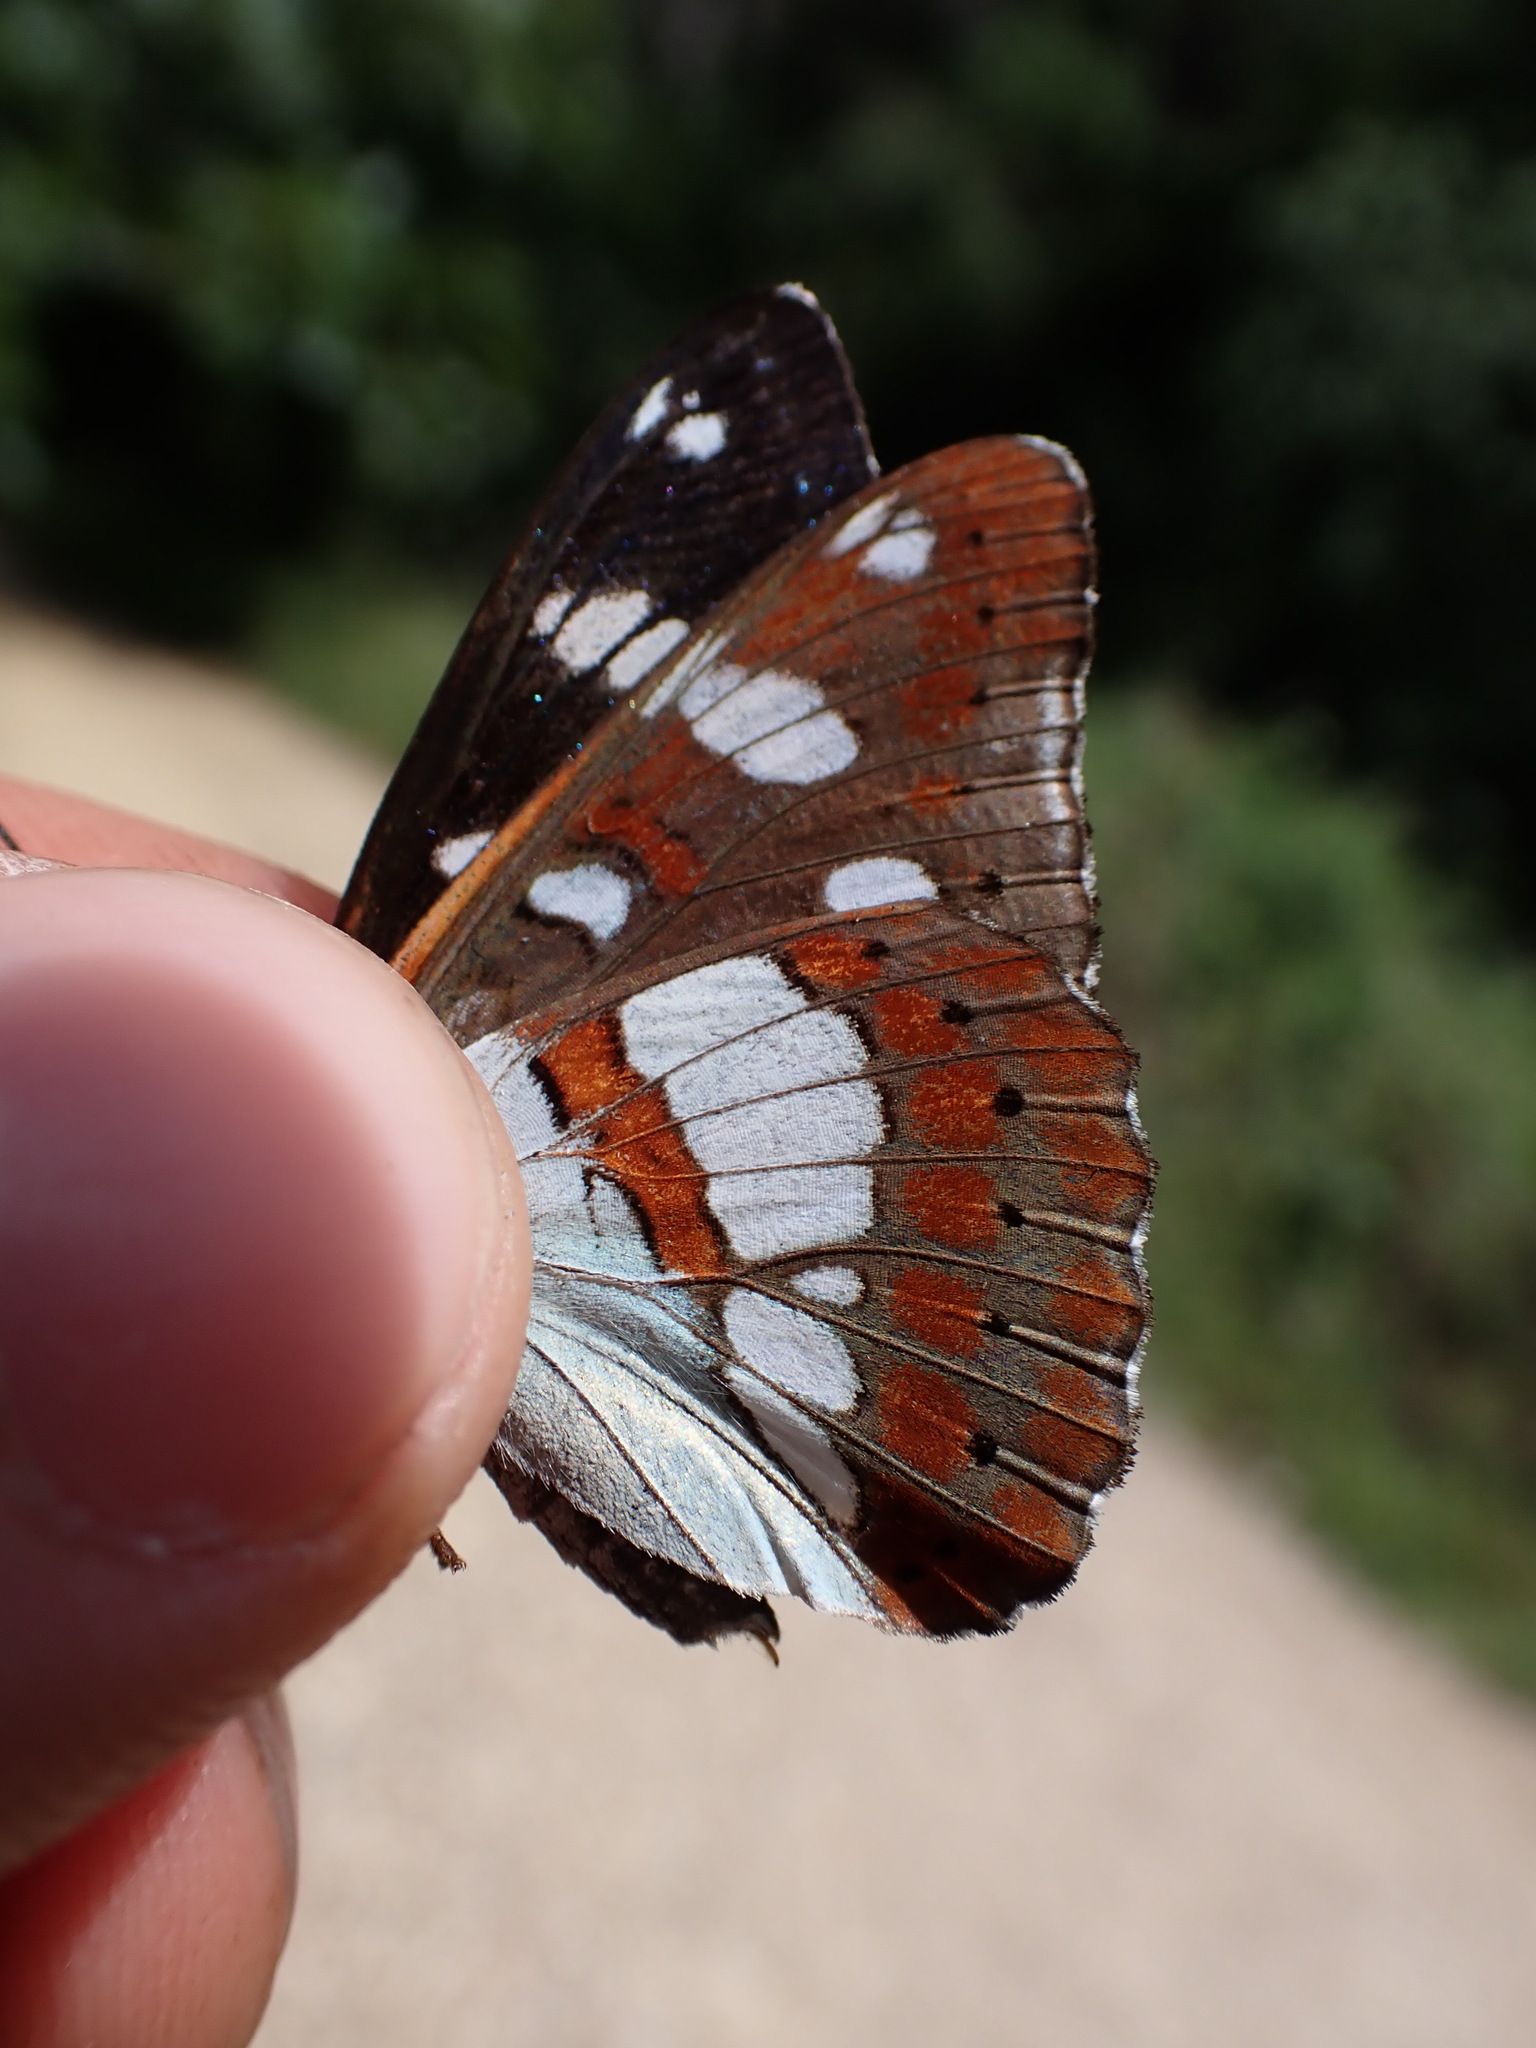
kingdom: Animalia
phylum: Arthropoda
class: Insecta
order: Lepidoptera
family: Nymphalidae
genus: Limenitis
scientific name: Limenitis reducta
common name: Southern white admiral
